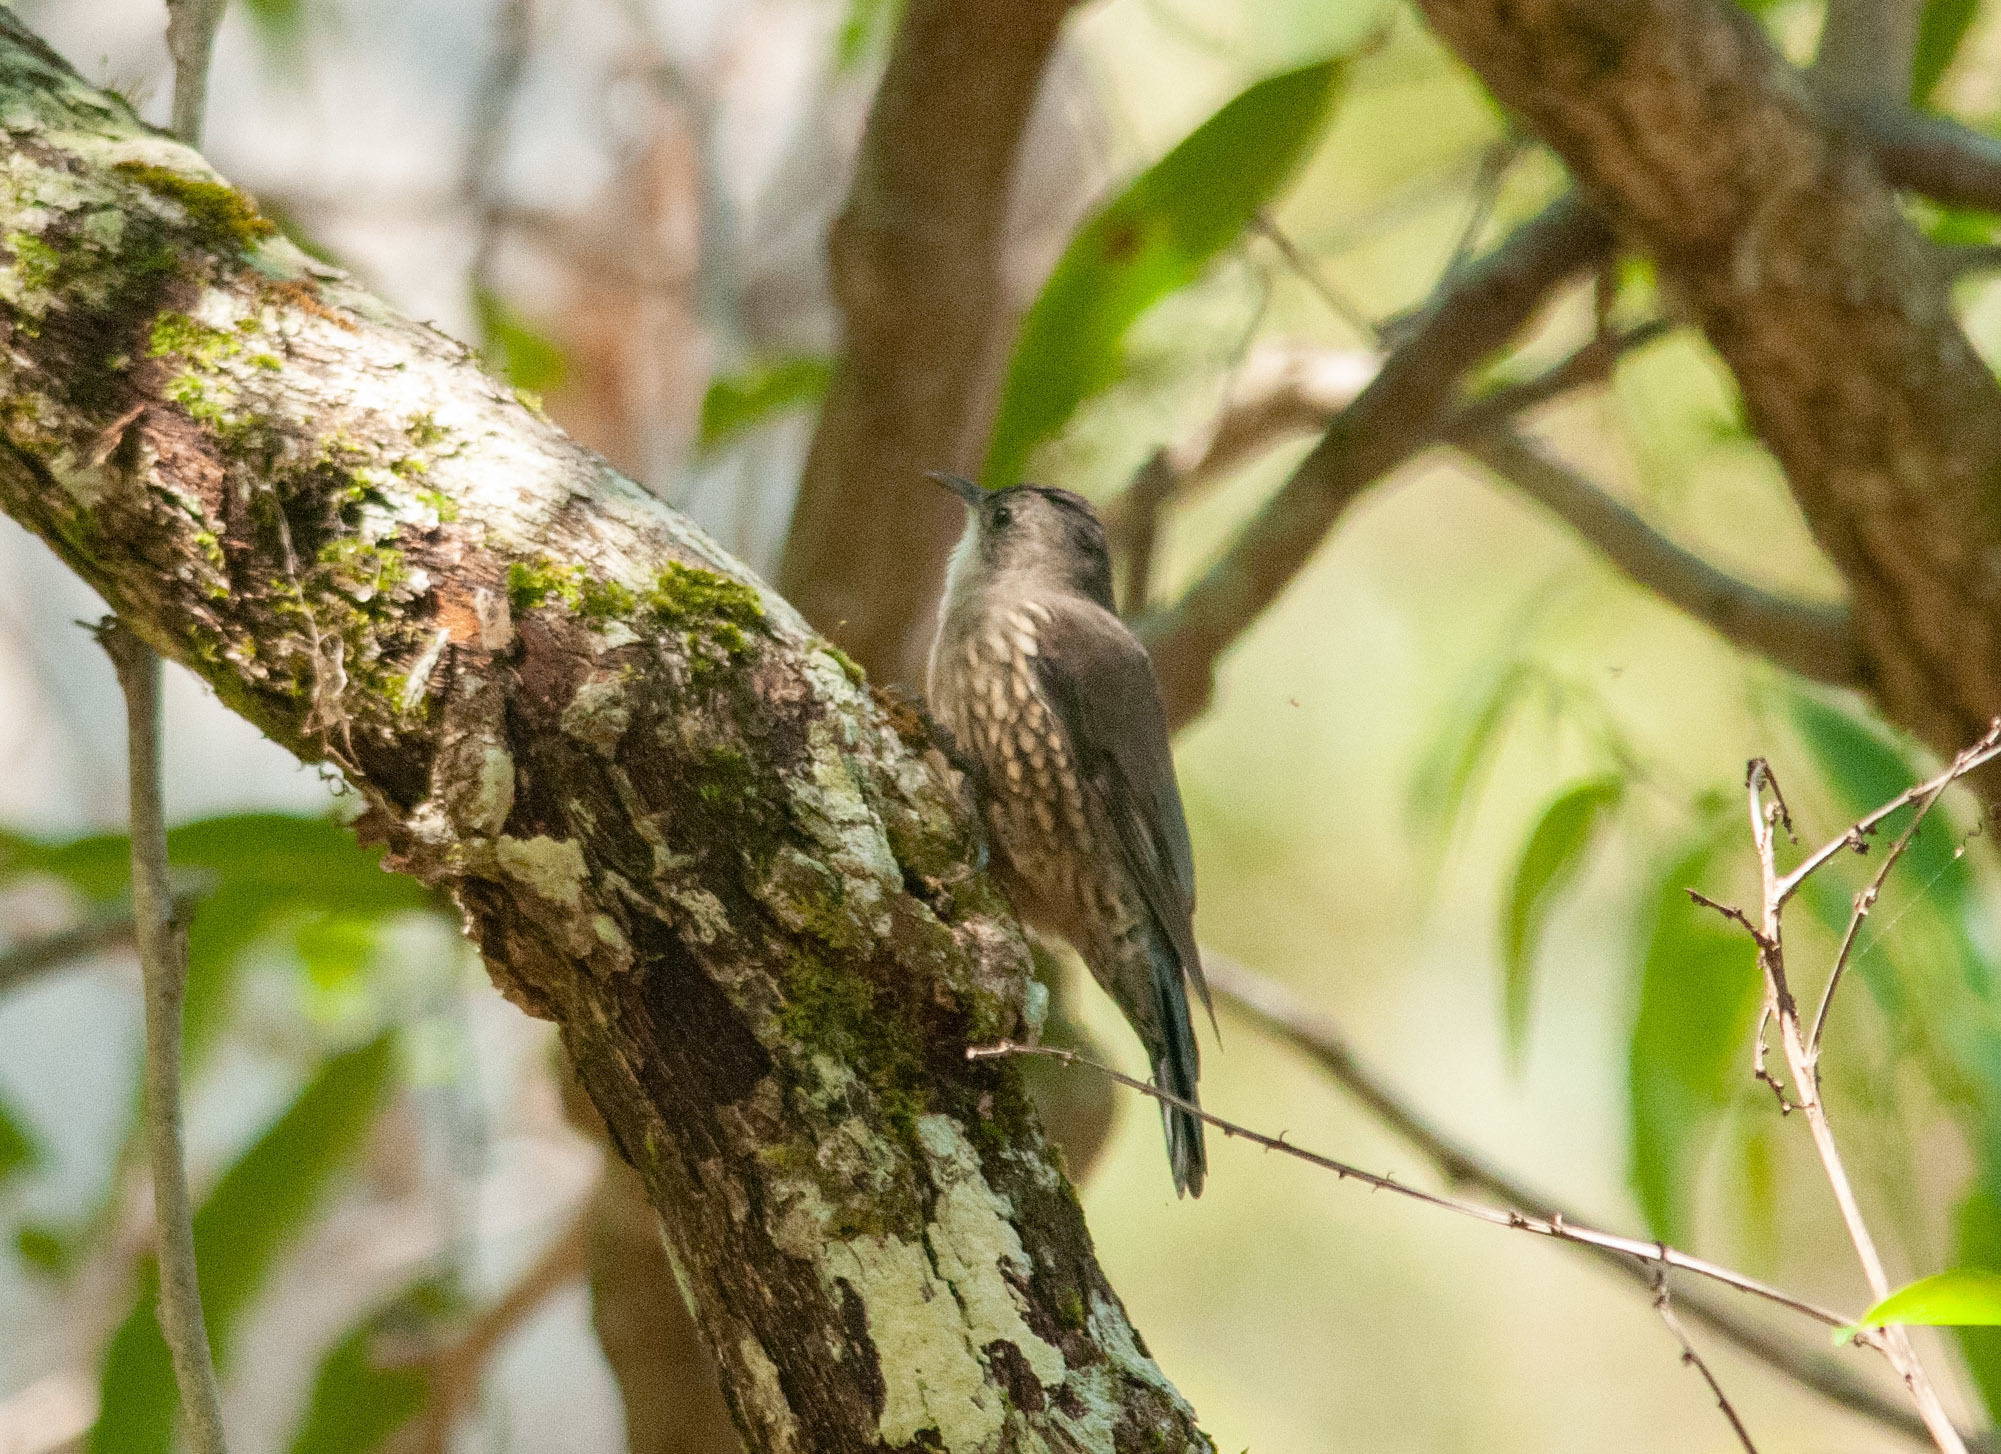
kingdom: Animalia
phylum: Chordata
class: Aves
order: Passeriformes
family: Climacteridae
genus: Cormobates
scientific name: Cormobates leucophaea
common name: White-throated treecreeper
